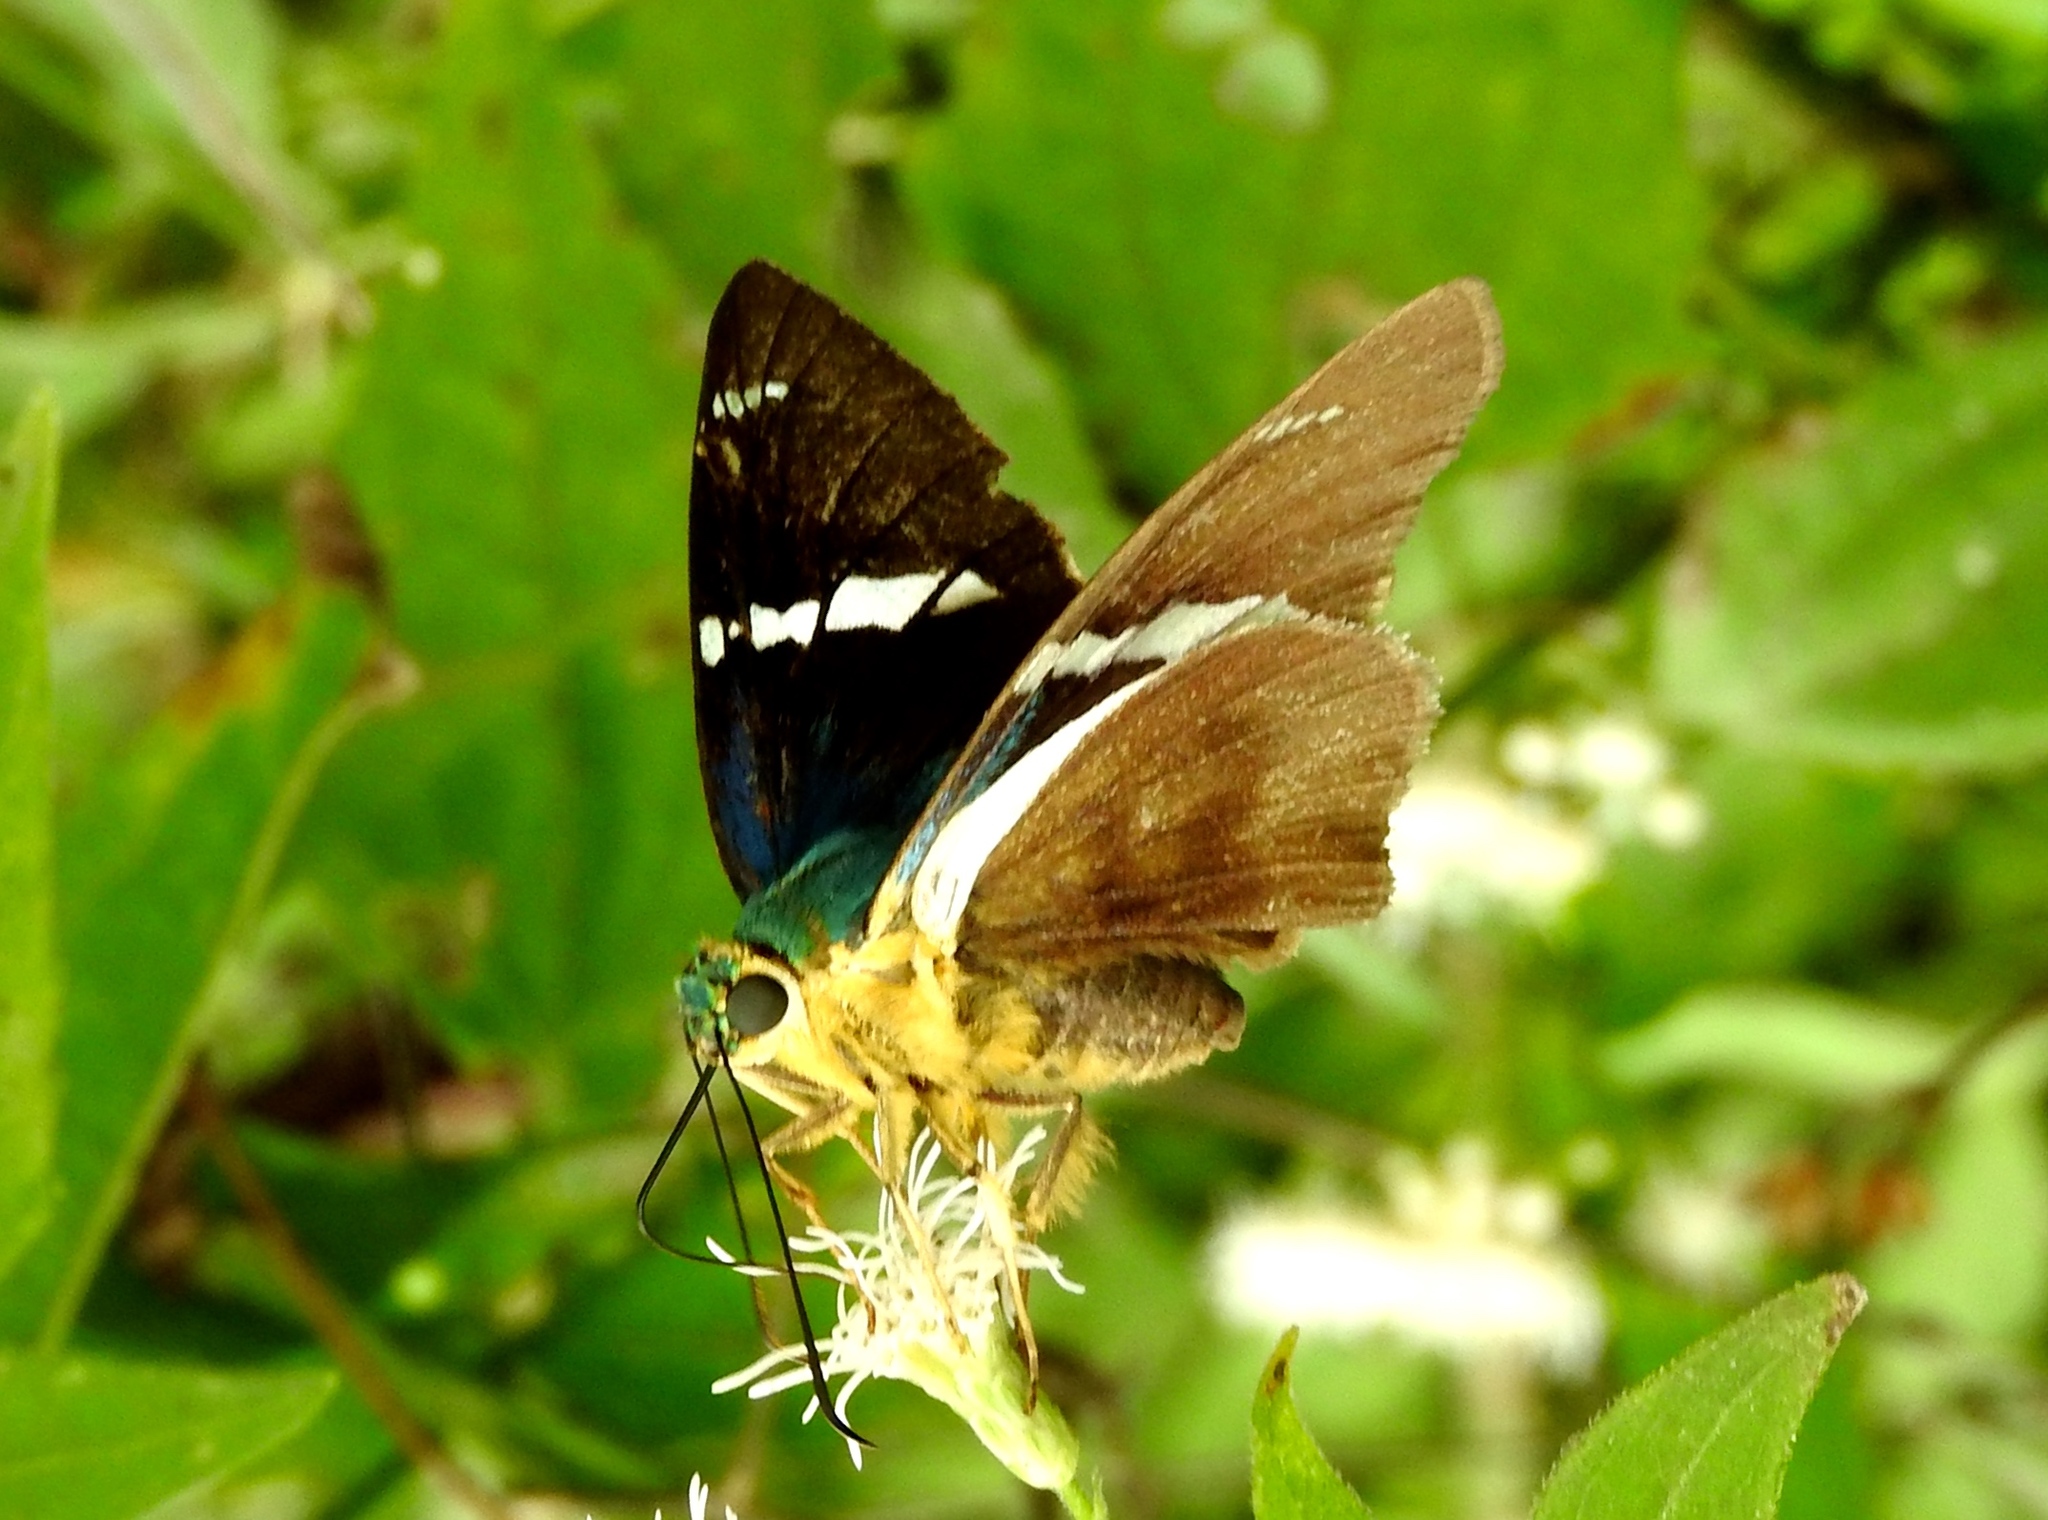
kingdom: Animalia
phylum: Arthropoda
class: Insecta
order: Lepidoptera
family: Hesperiidae
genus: Astraptes
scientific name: Astraptes fulgerator
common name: Two-barred flasher
